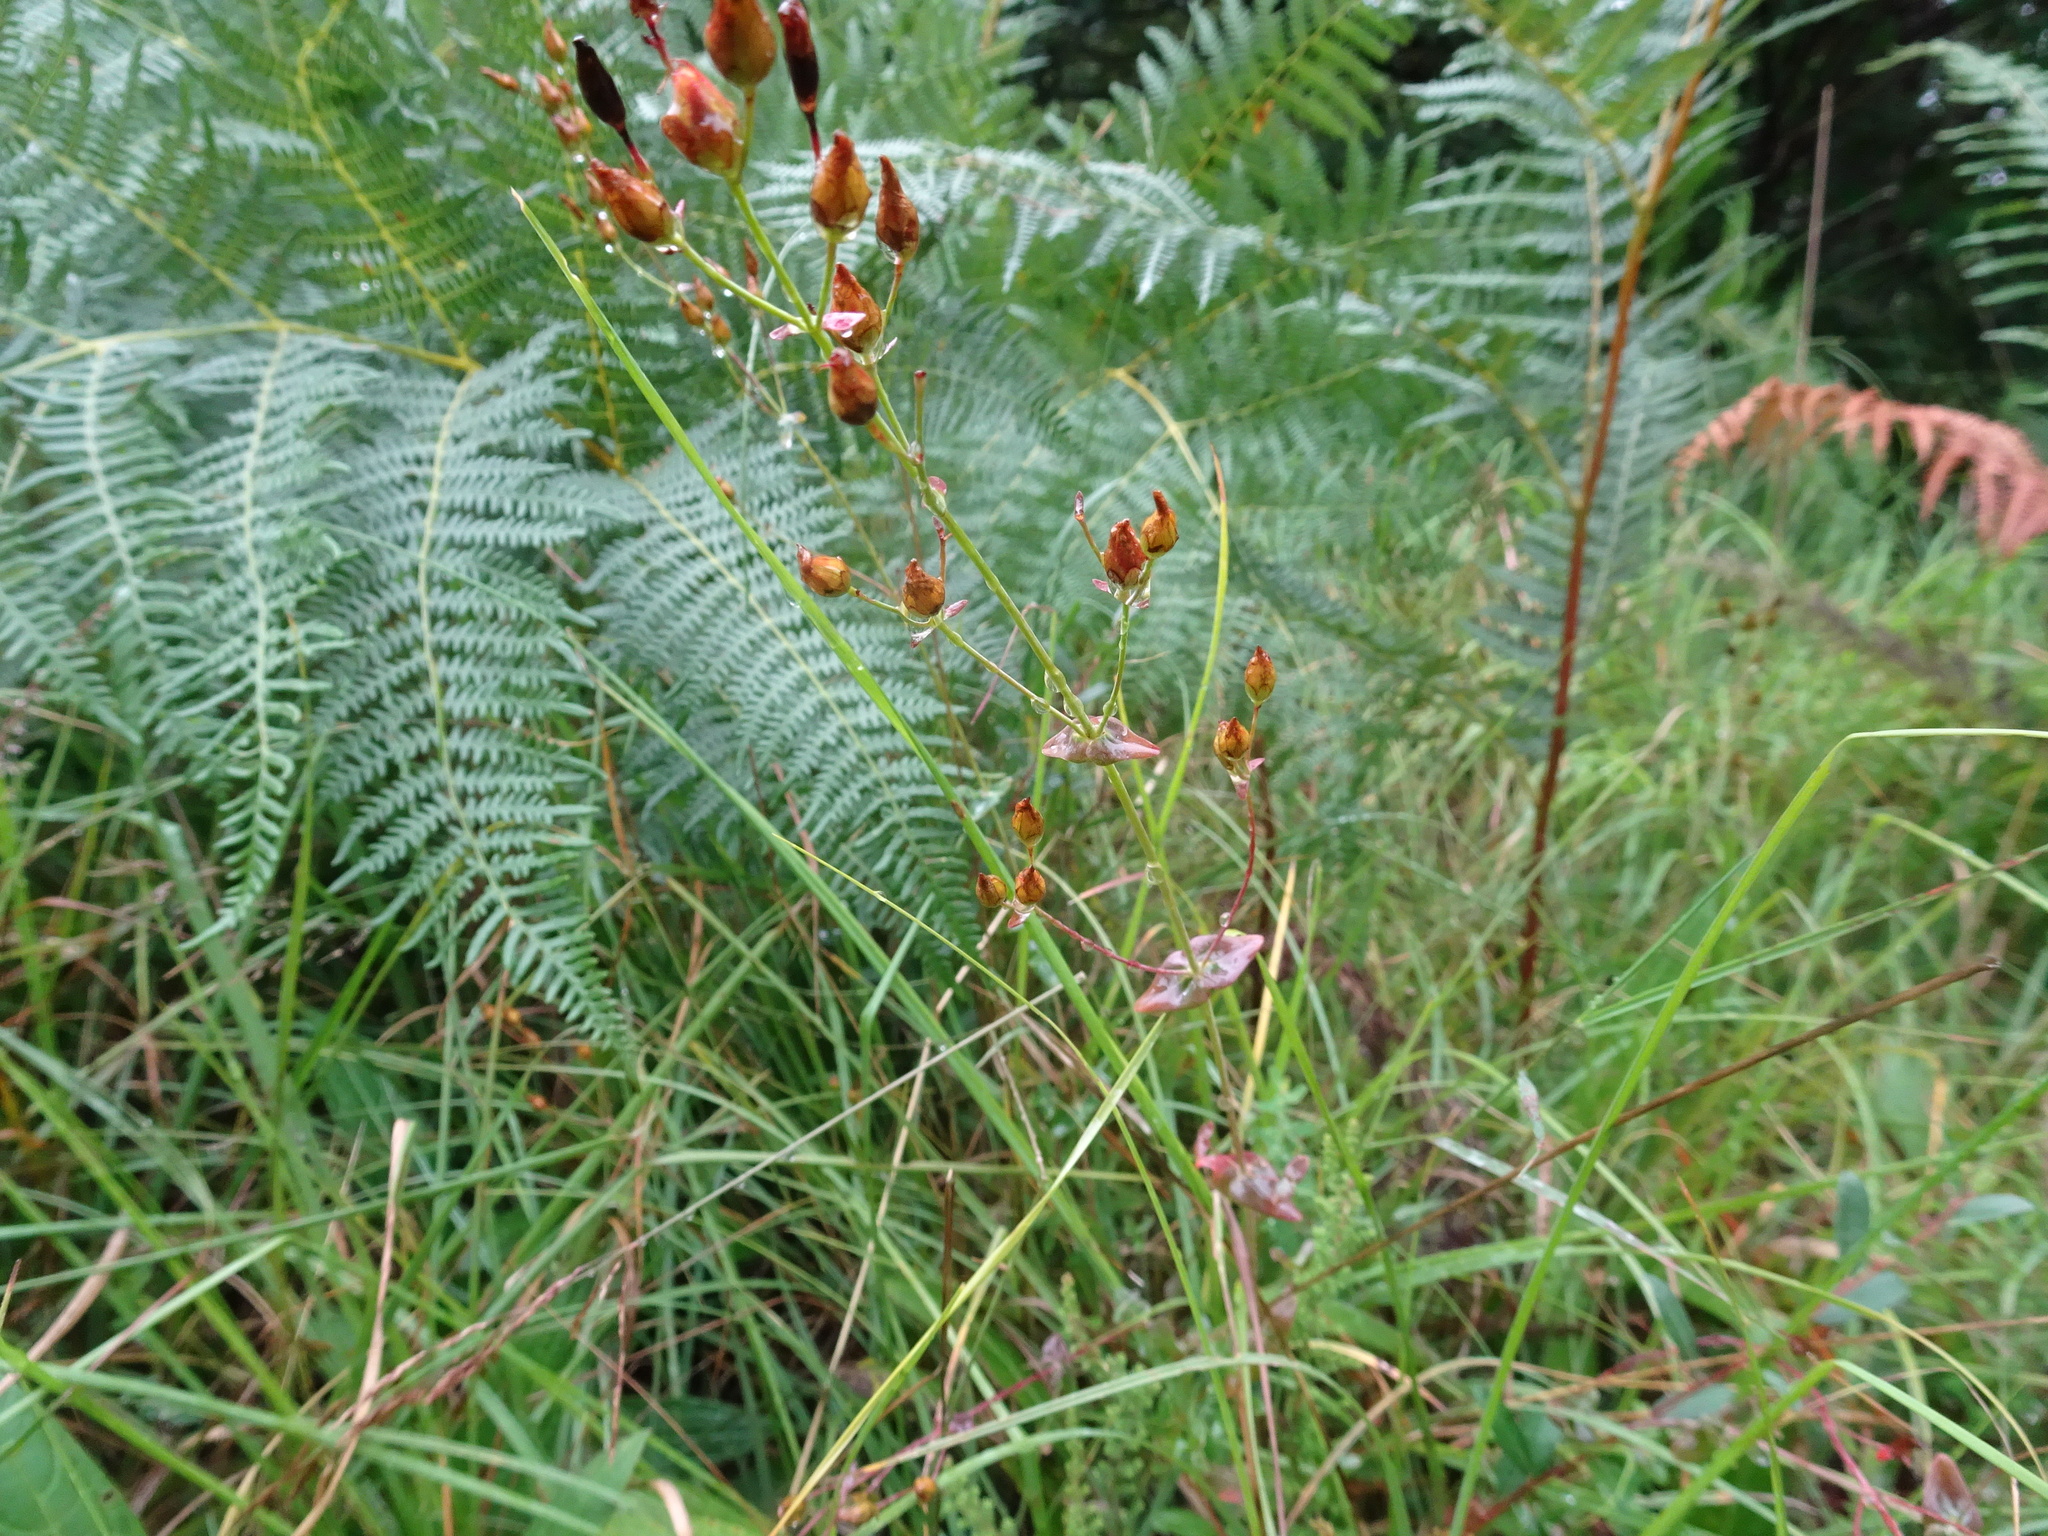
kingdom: Plantae
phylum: Tracheophyta
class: Magnoliopsida
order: Malpighiales
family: Hypericaceae
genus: Hypericum
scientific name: Hypericum pulchrum
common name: Slender st. john's-wort
